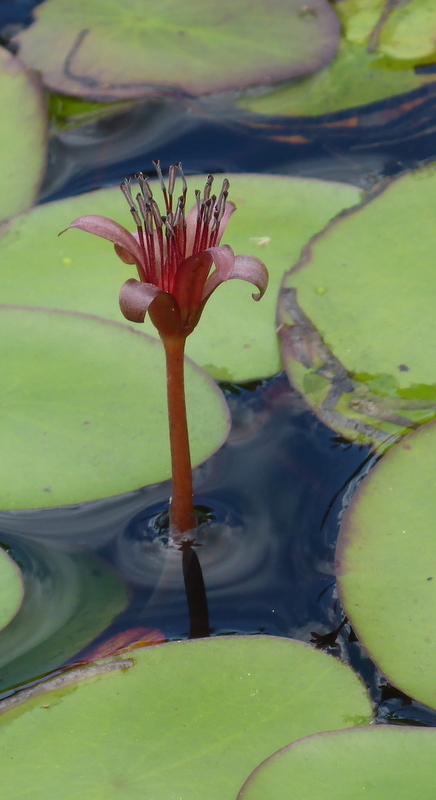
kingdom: Plantae
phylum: Tracheophyta
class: Magnoliopsida
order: Nymphaeales
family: Cabombaceae
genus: Brasenia
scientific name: Brasenia schreberi
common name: Water-shield
